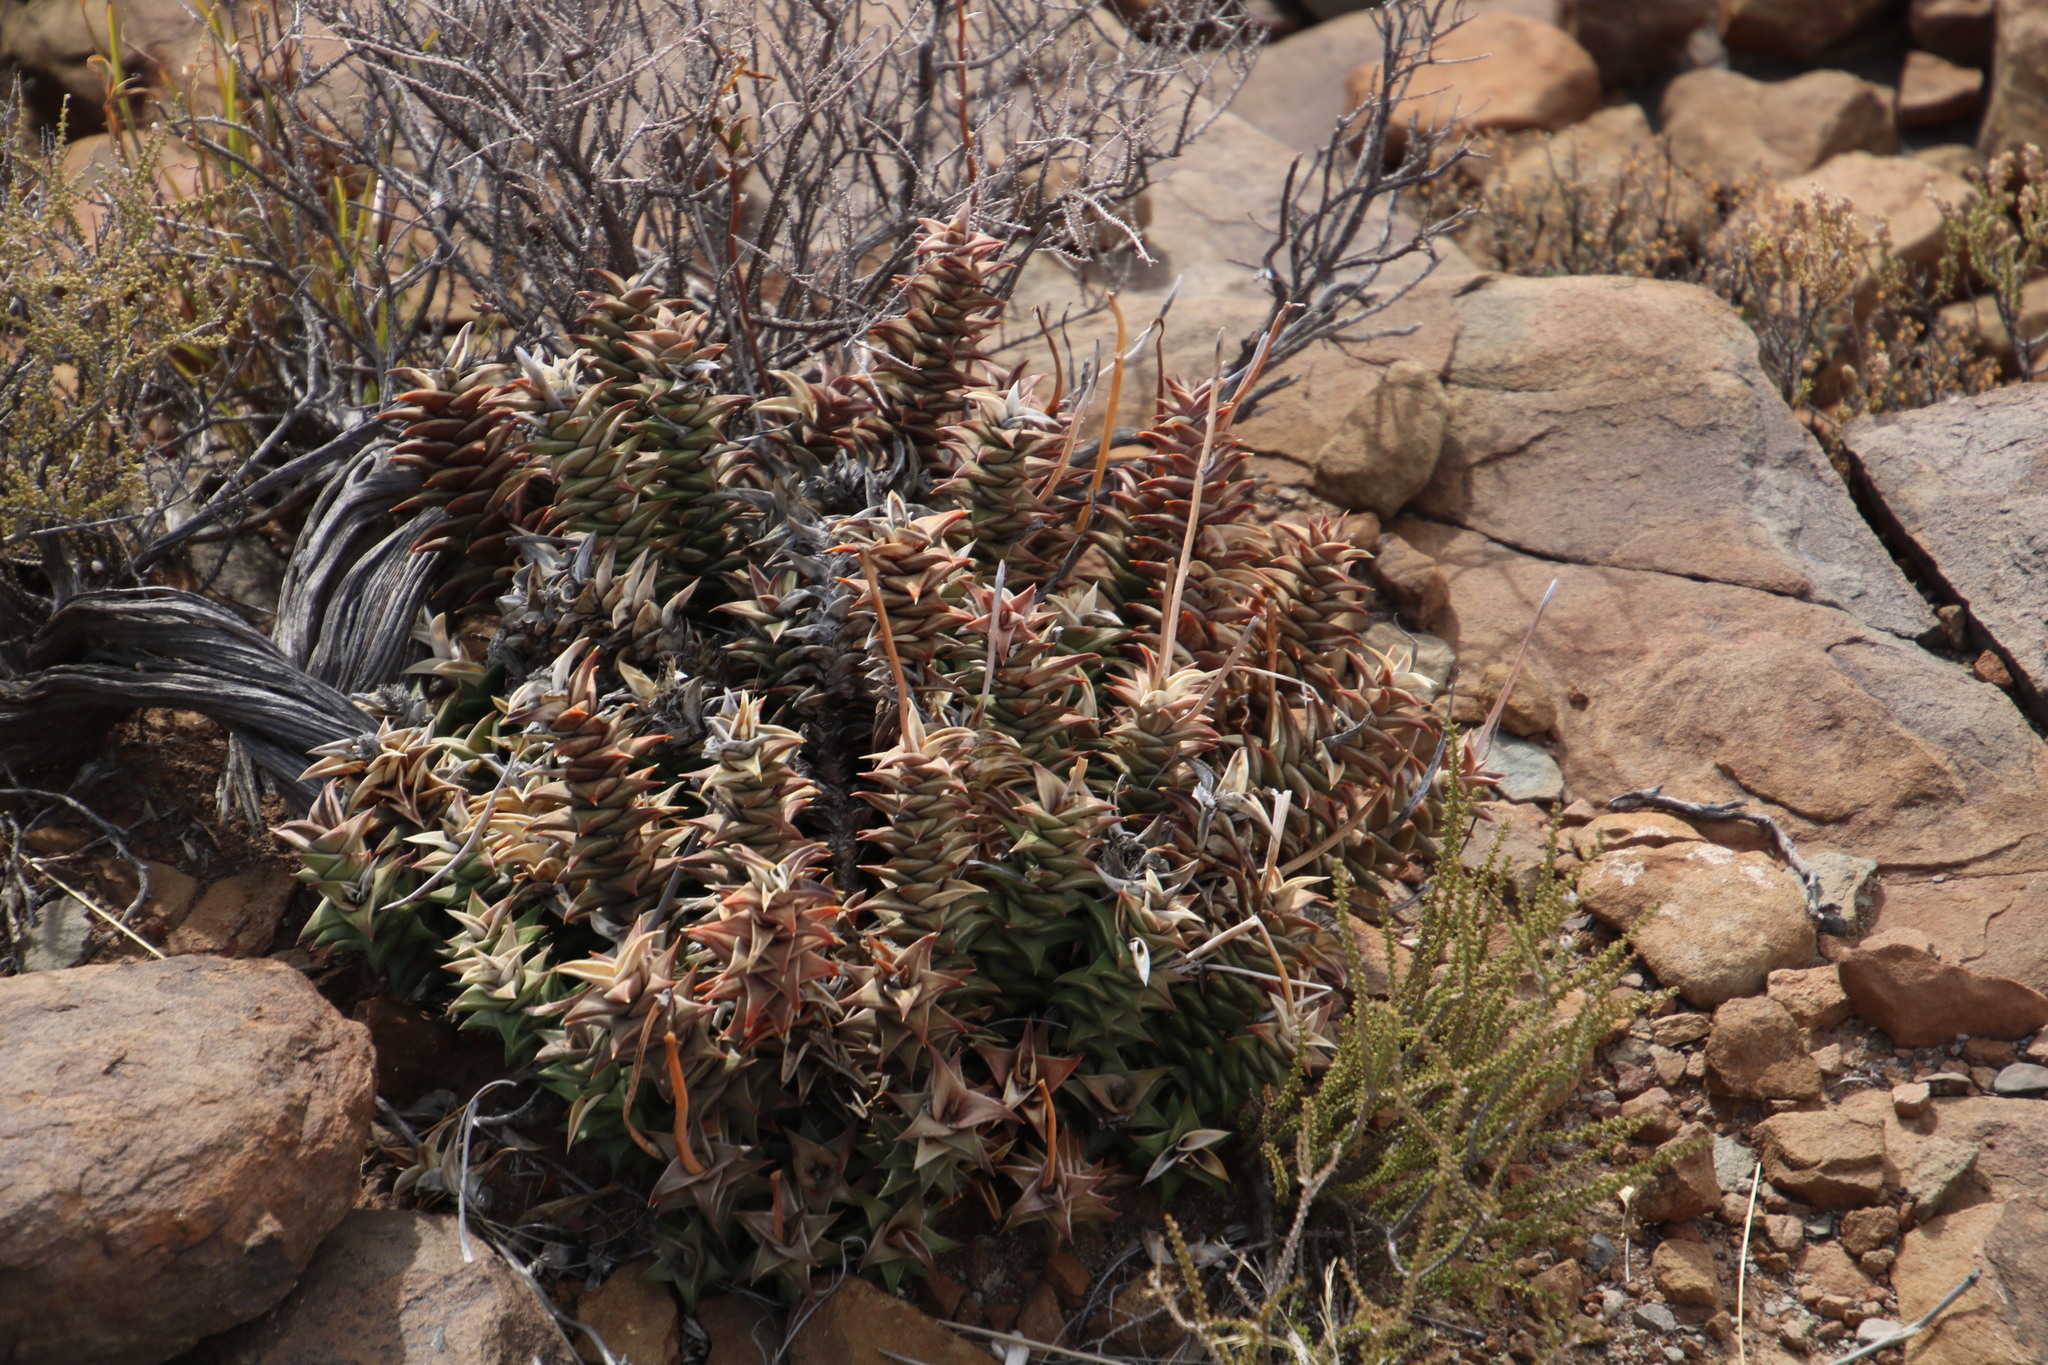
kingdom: Plantae
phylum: Tracheophyta
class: Liliopsida
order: Asparagales
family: Asphodelaceae
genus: Astroloba
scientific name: Astroloba robusta
